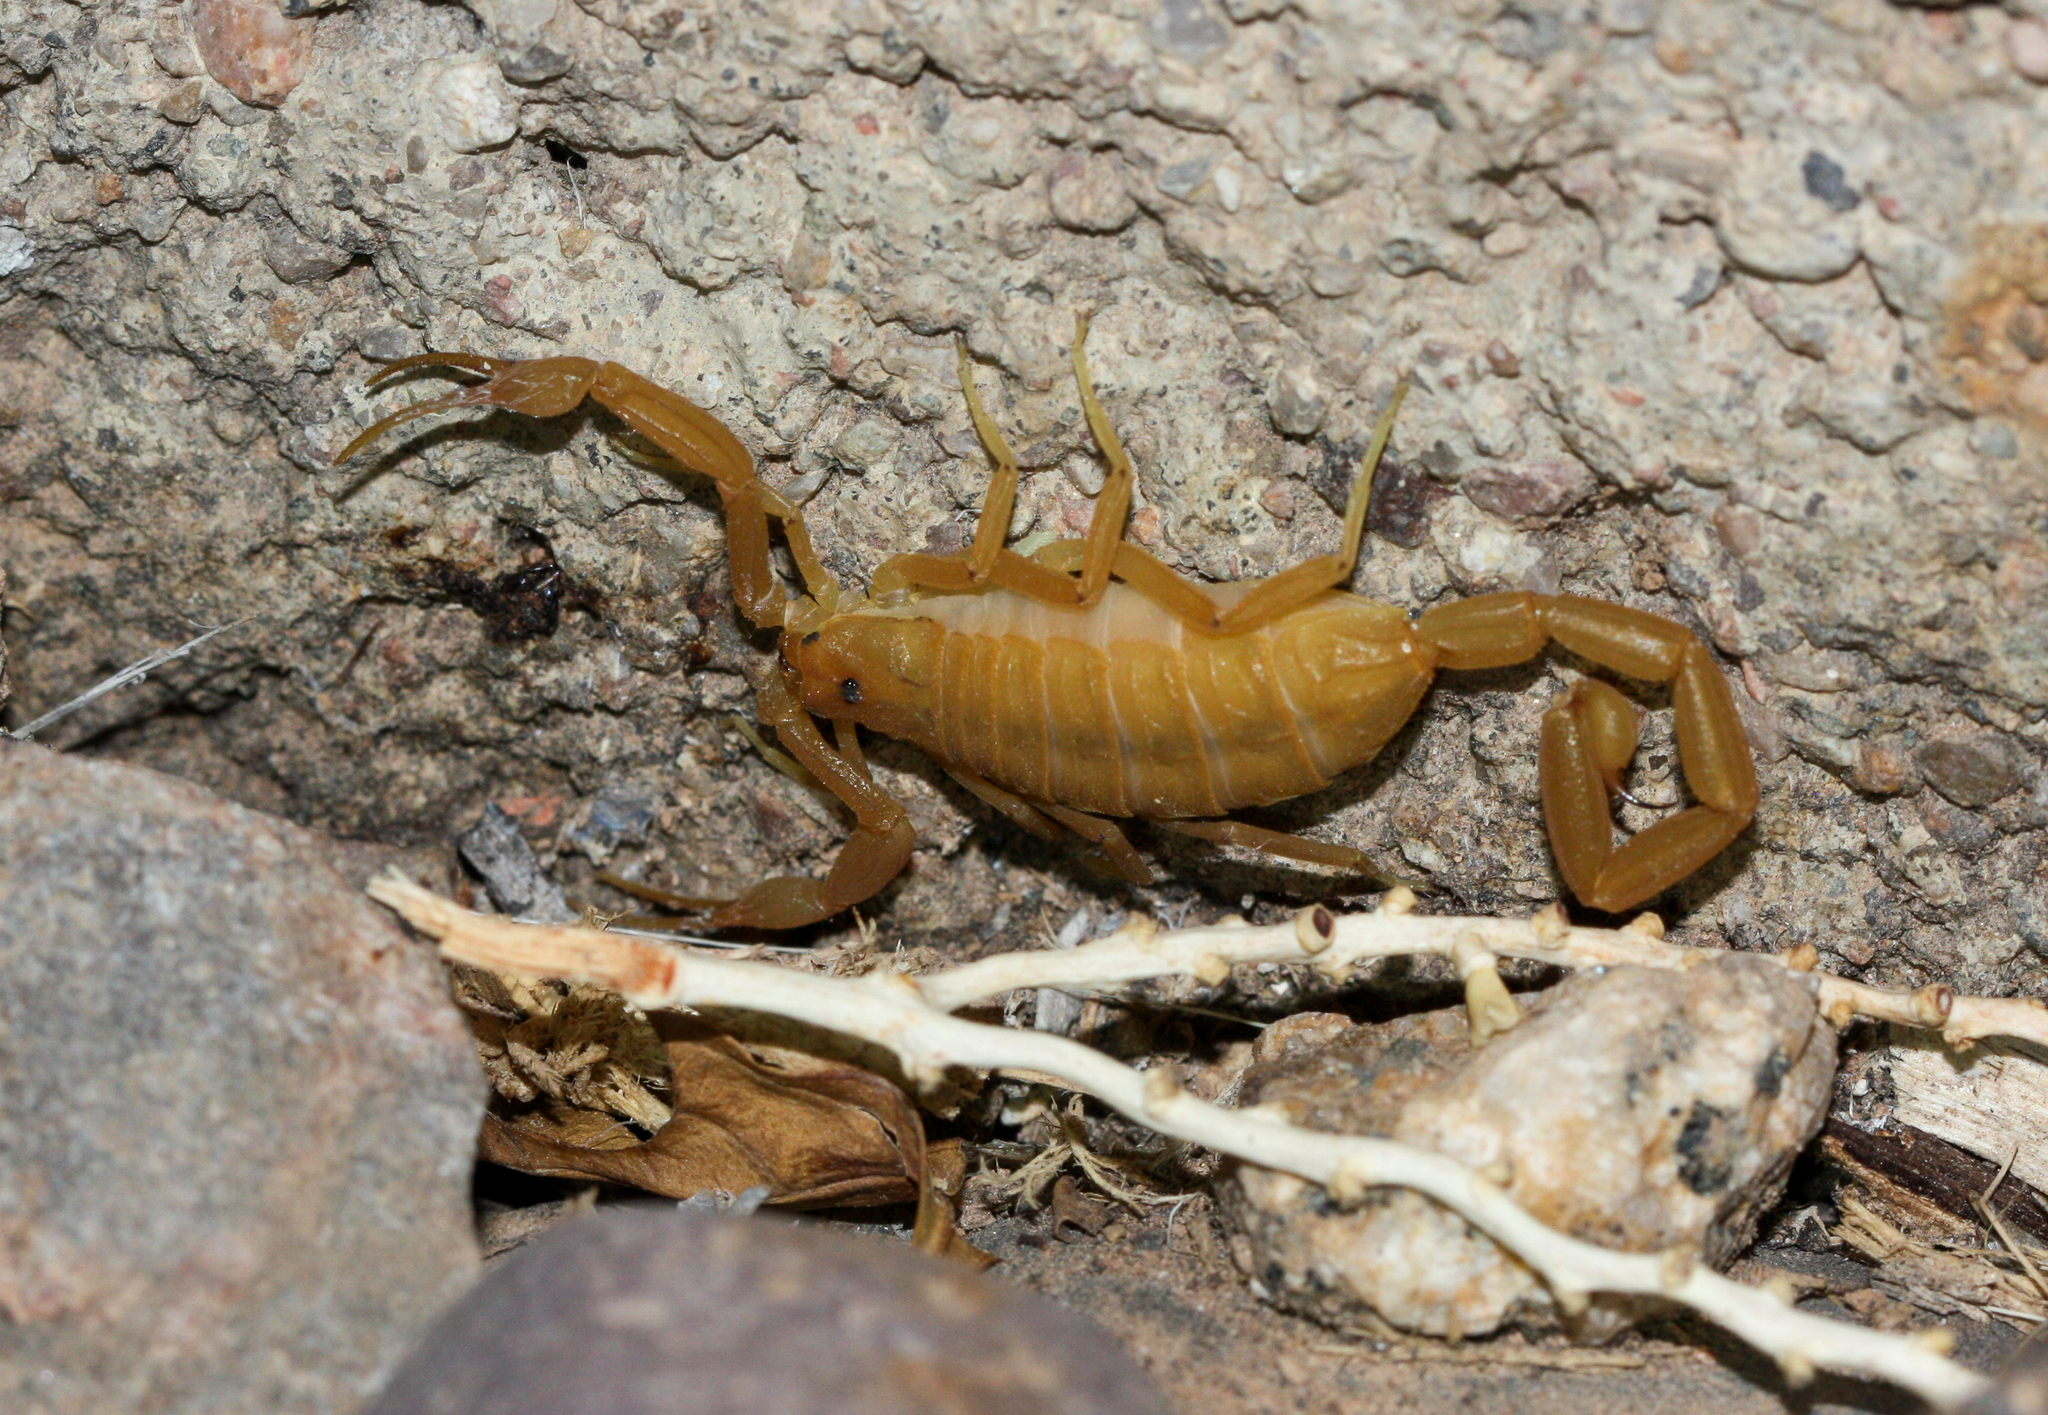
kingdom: Animalia
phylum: Arthropoda
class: Arachnida
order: Scorpiones
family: Buthidae
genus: Centruroides
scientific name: Centruroides sculpturatus
